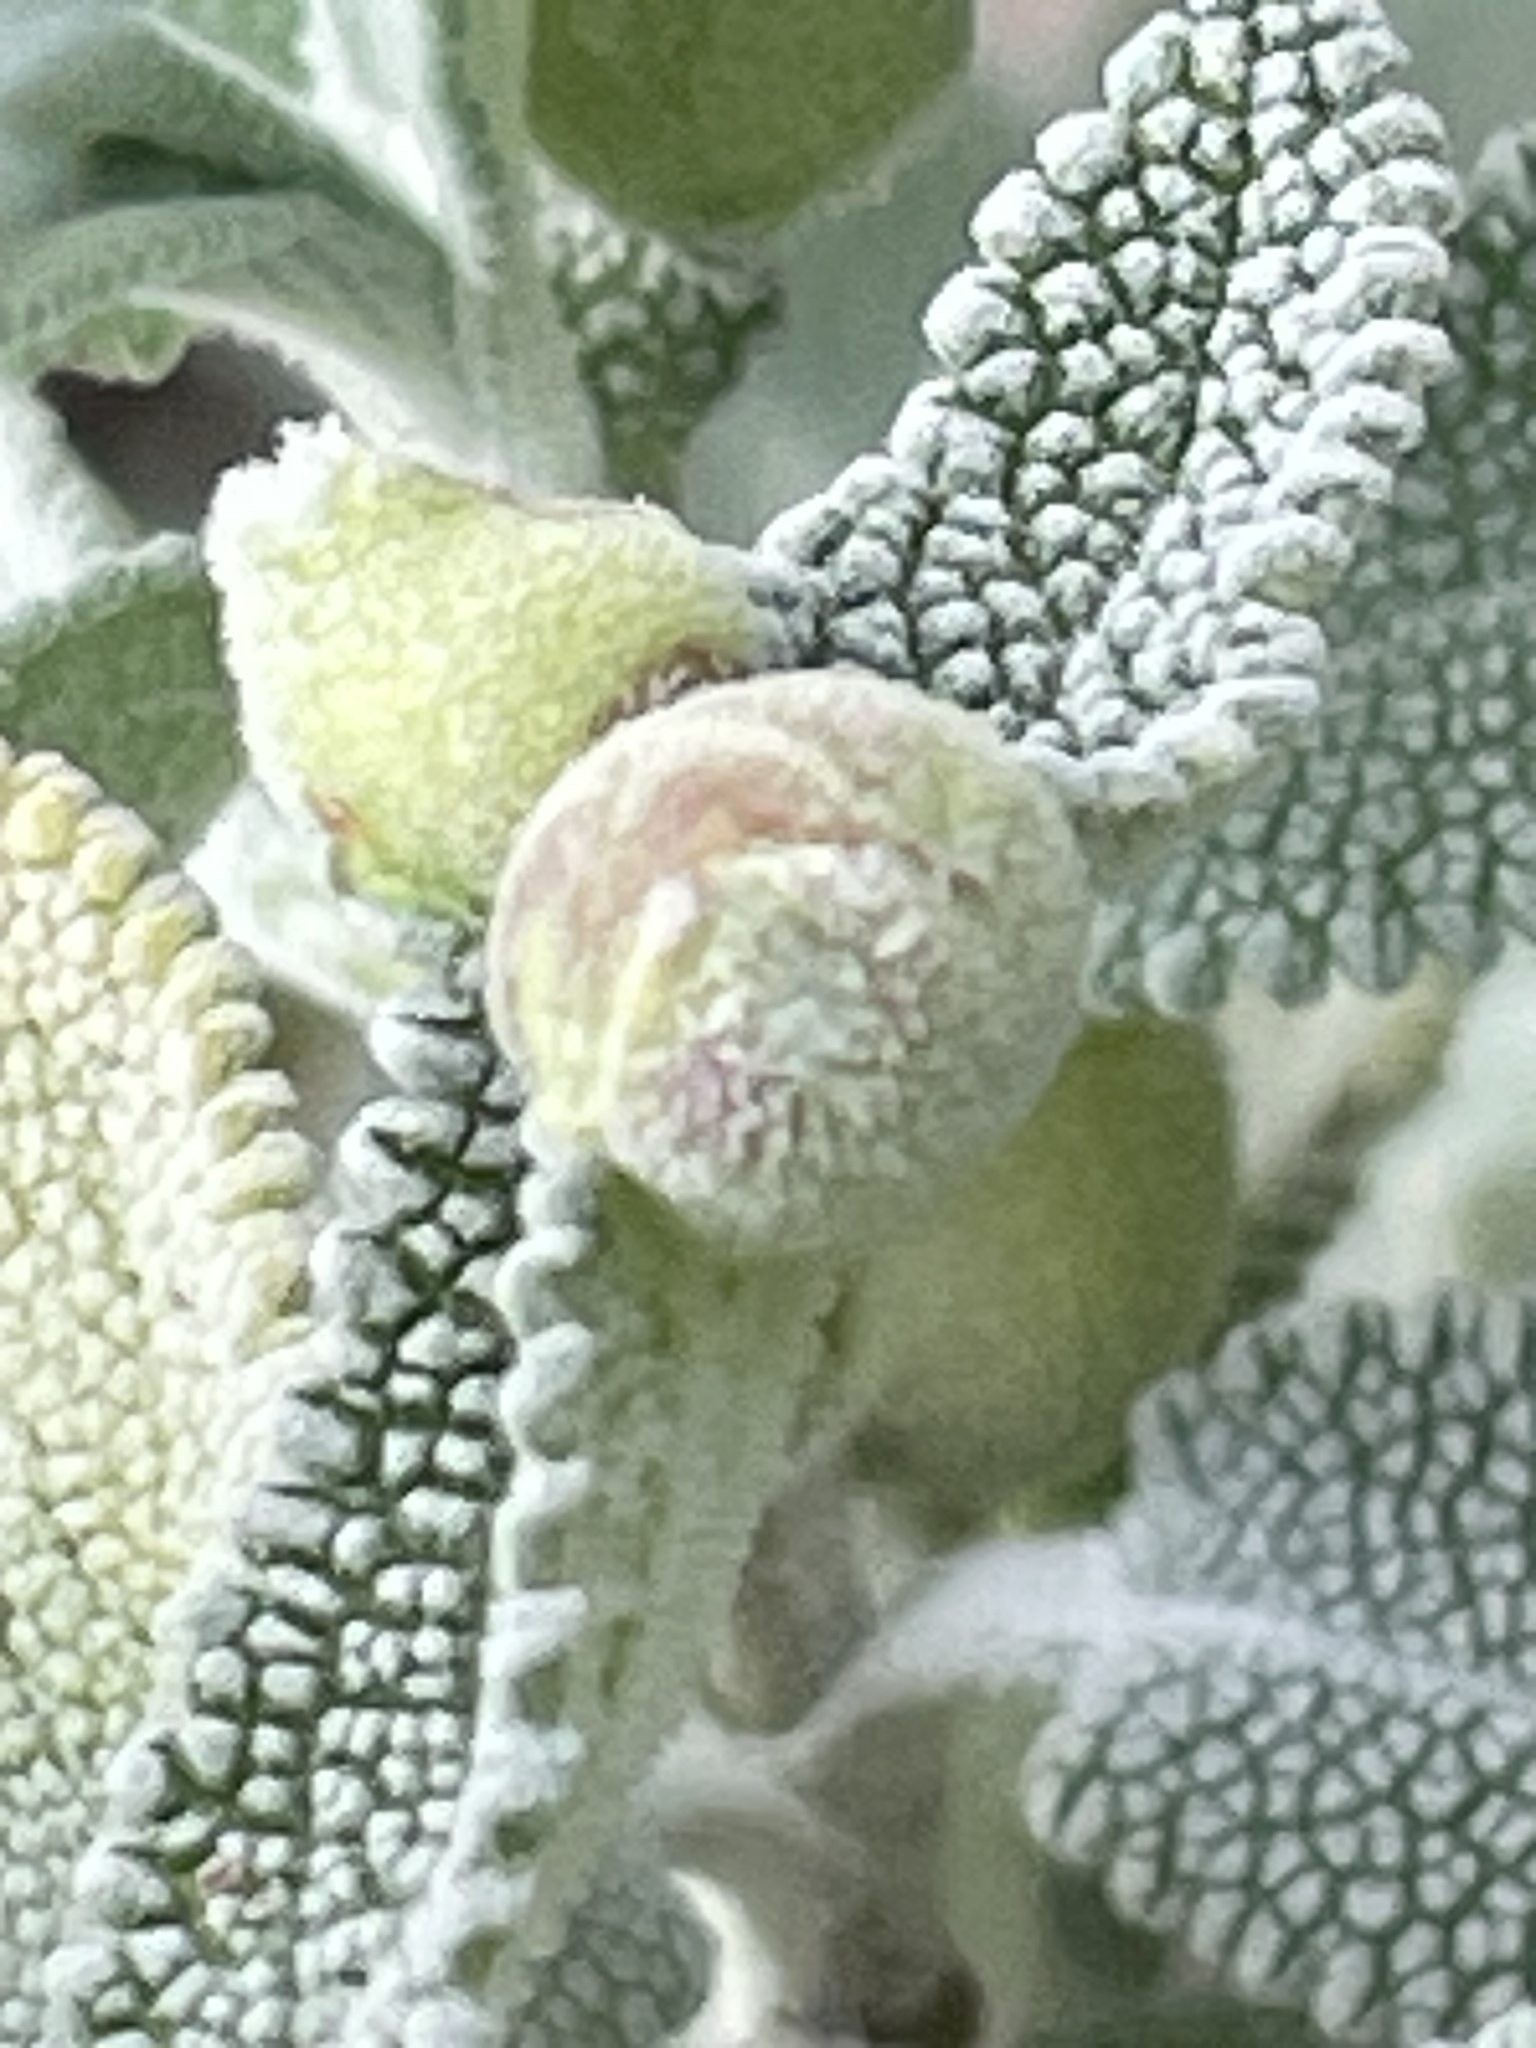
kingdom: Animalia
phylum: Arthropoda
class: Insecta
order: Diptera
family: Cecidomyiidae
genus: Rhopalomyia
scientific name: Rhopalomyia audibertiae
